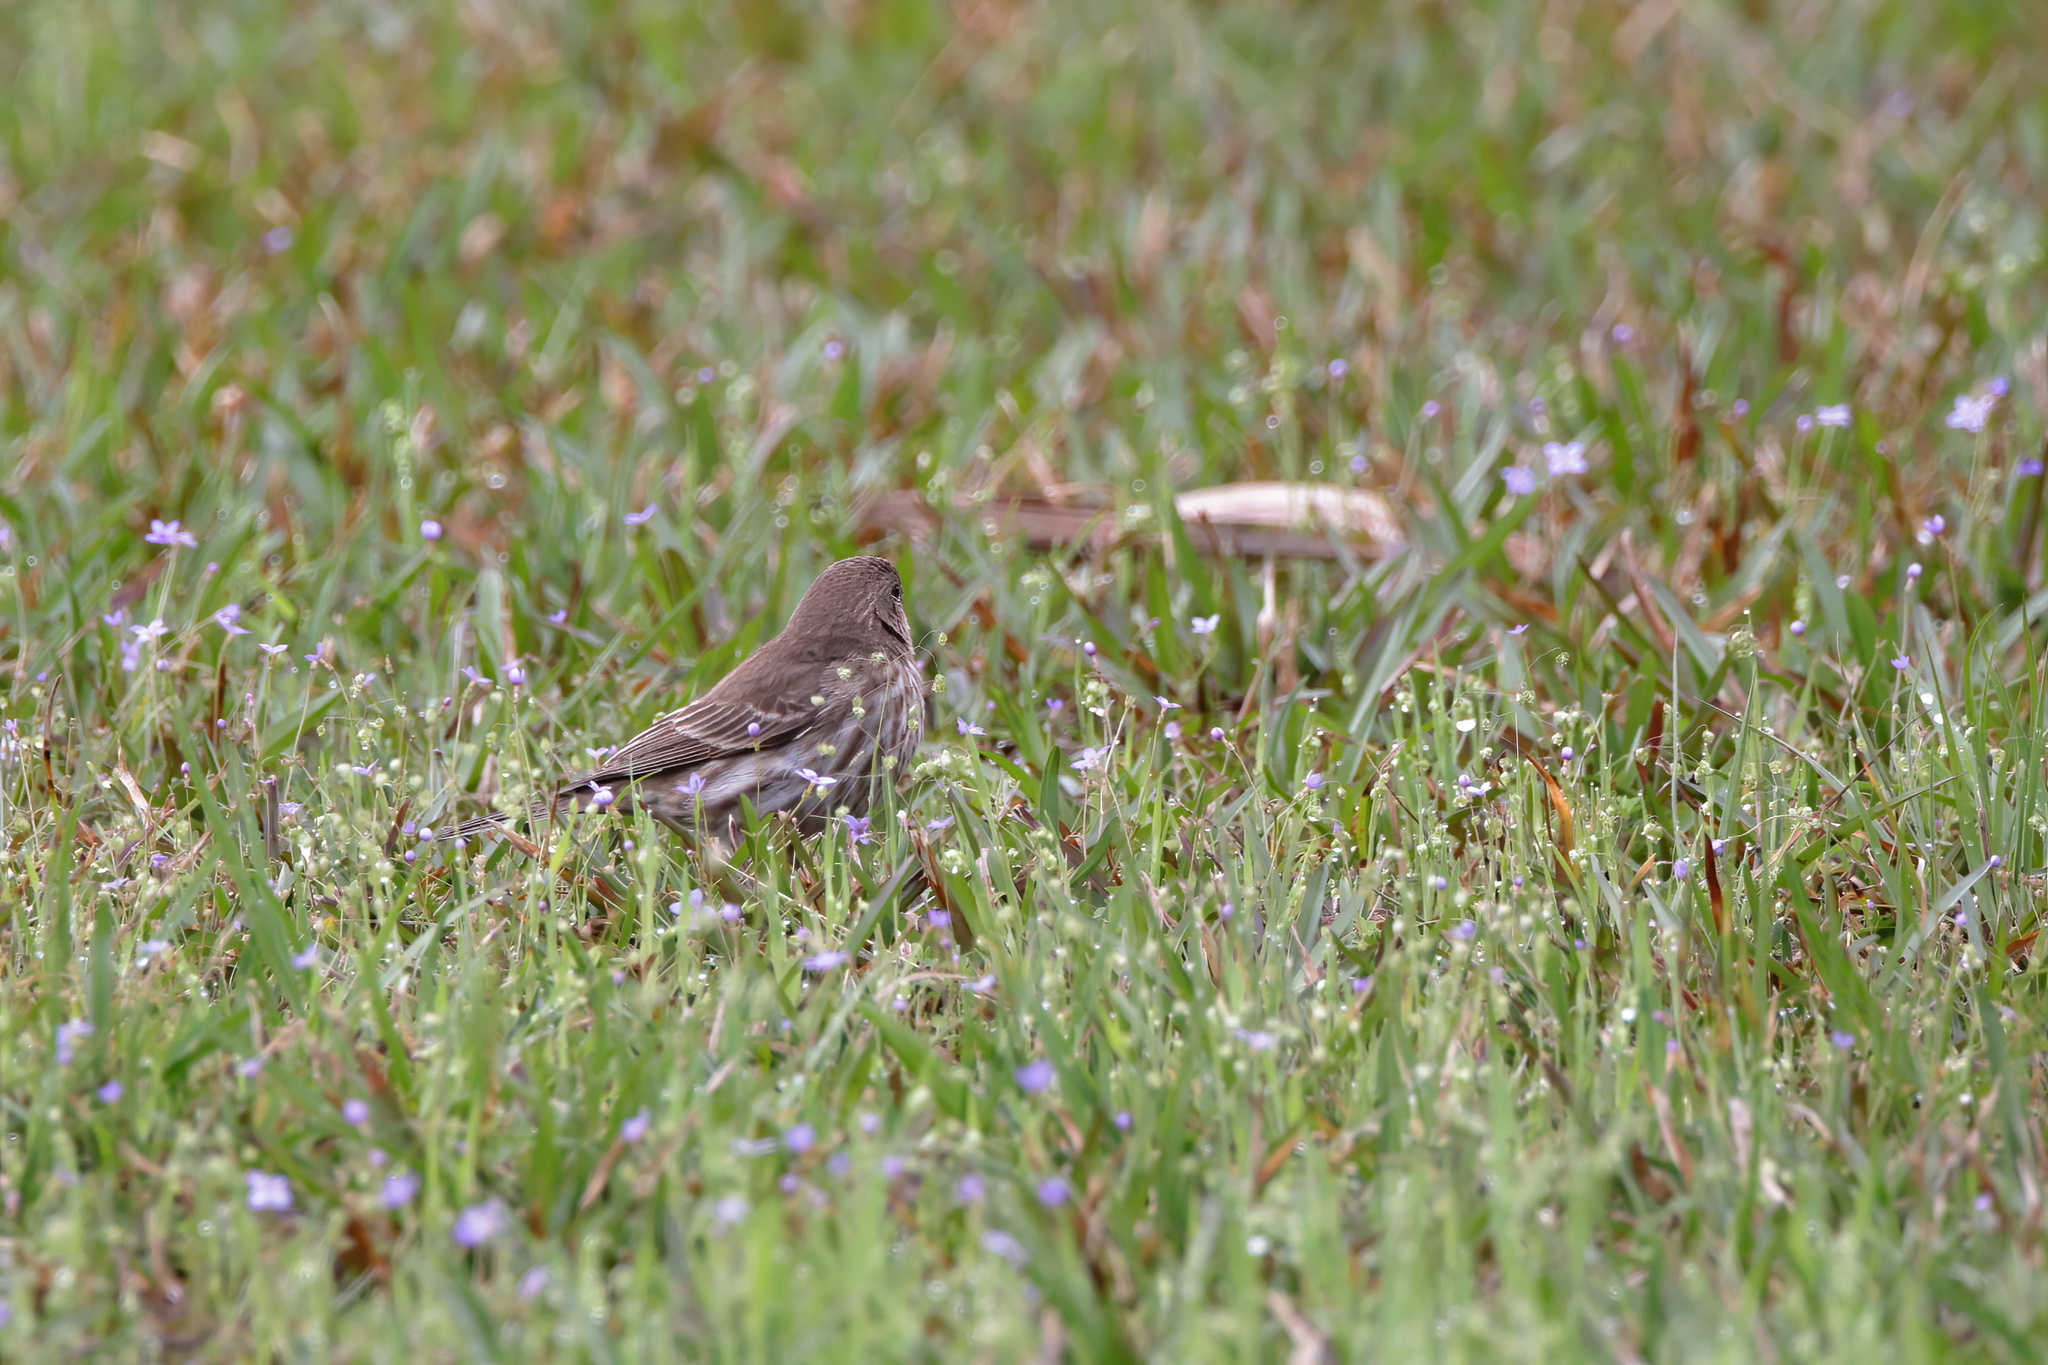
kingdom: Animalia
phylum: Chordata
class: Aves
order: Passeriformes
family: Fringillidae
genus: Haemorhous
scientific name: Haemorhous mexicanus
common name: House finch
